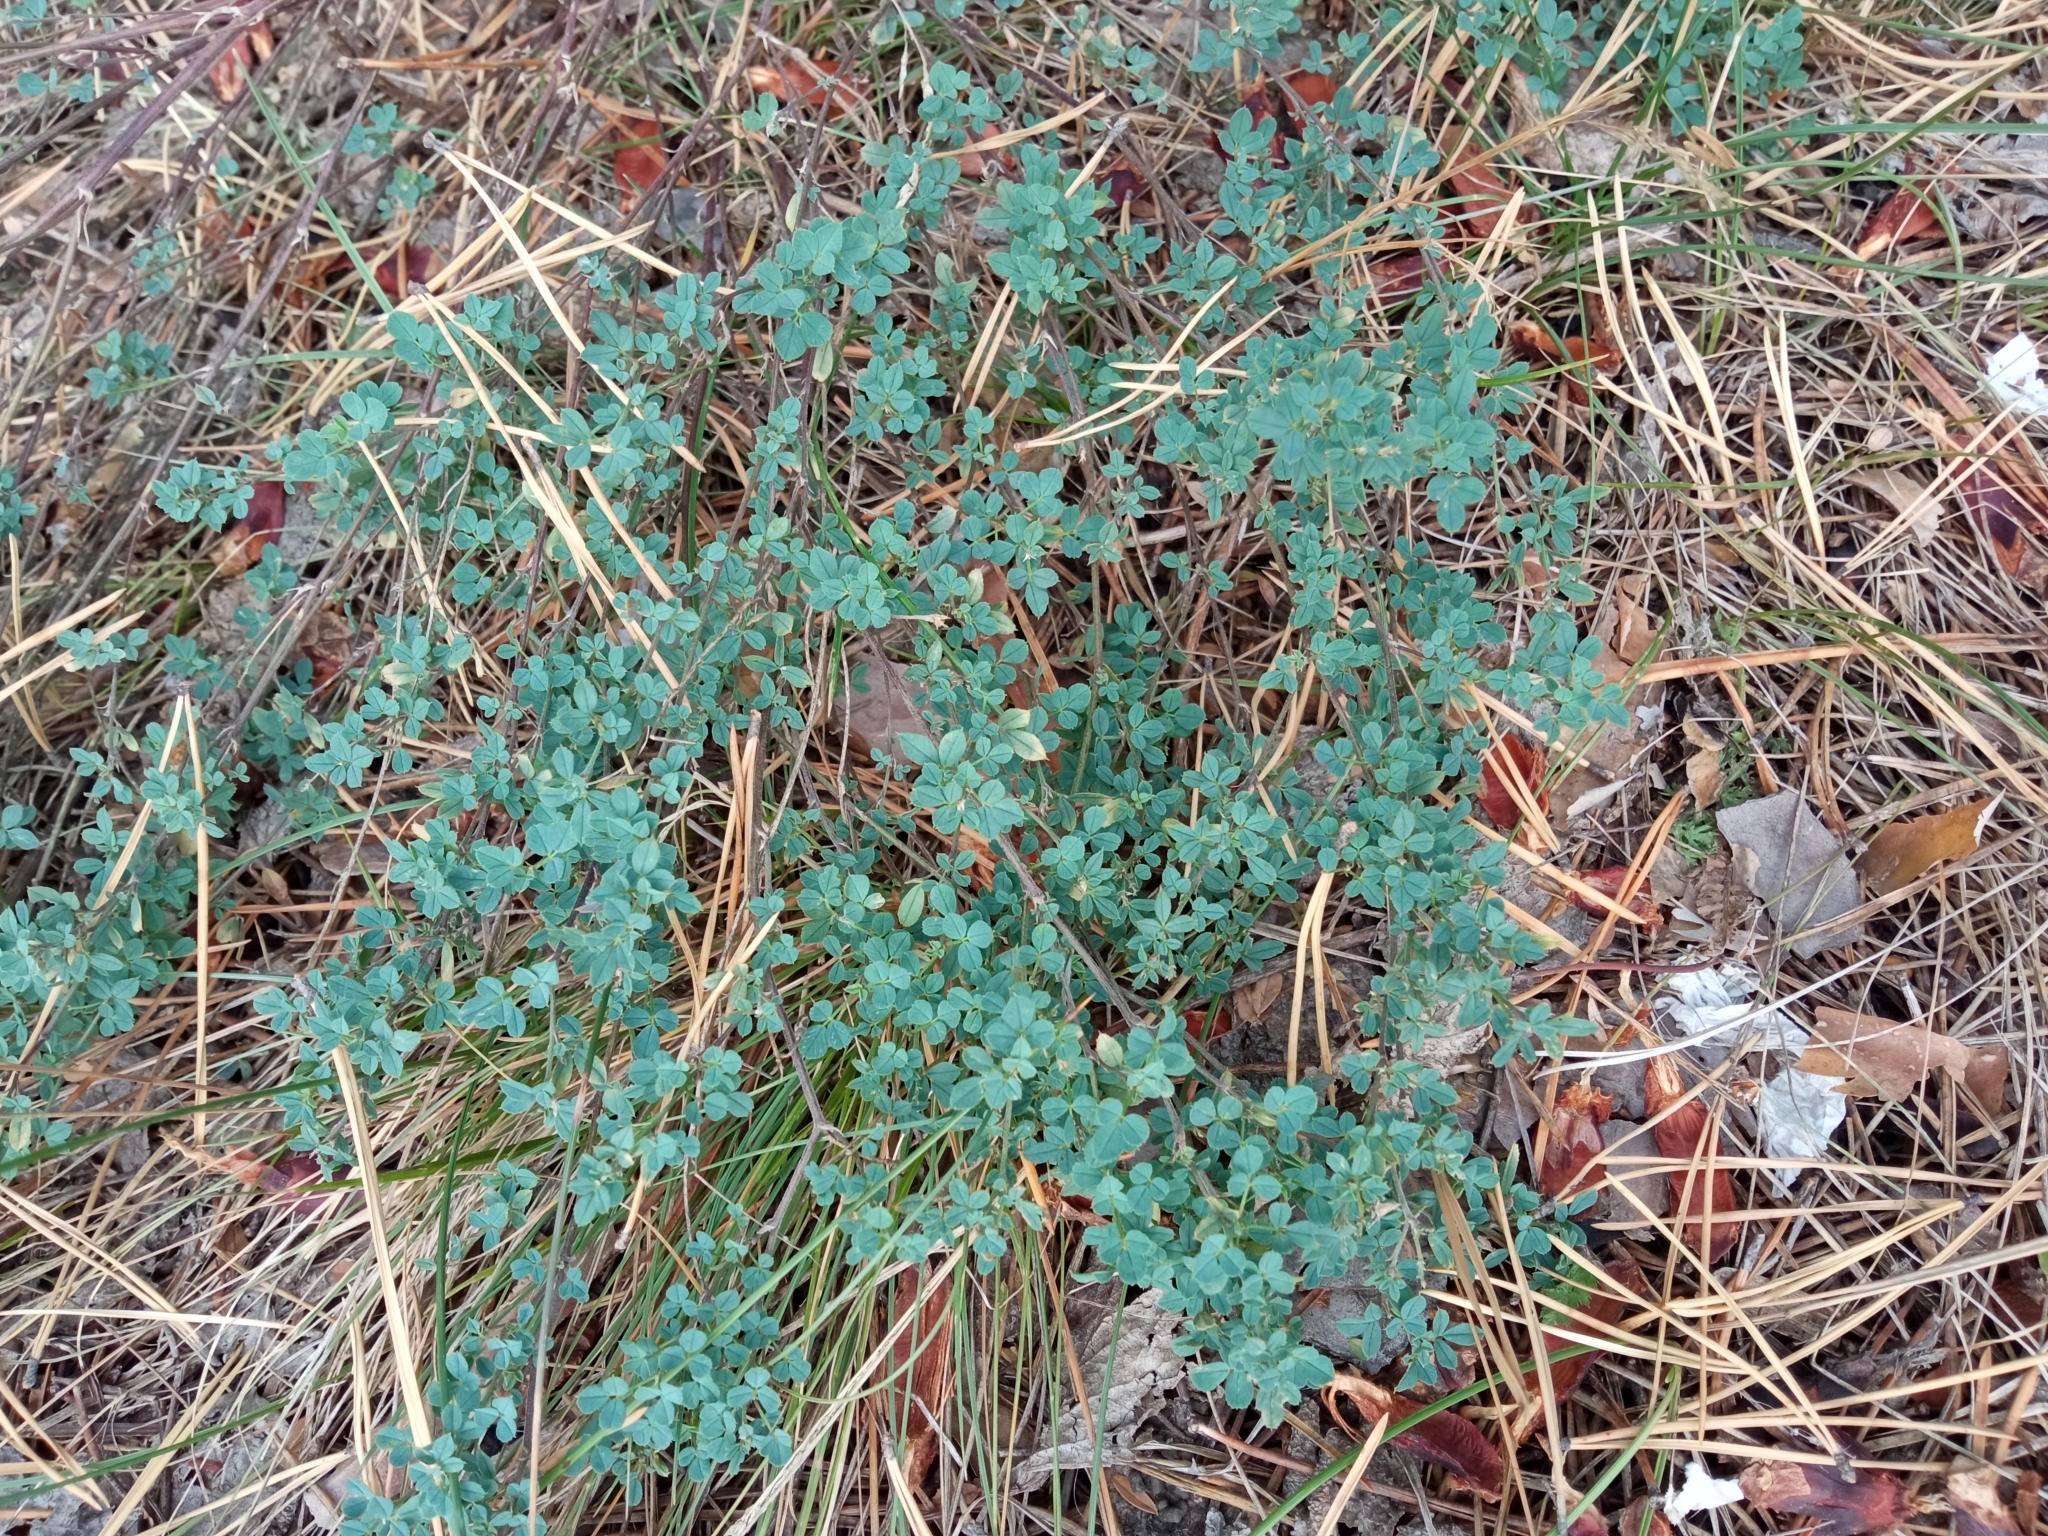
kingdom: Plantae
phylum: Tracheophyta
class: Magnoliopsida
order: Fabales
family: Fabaceae
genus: Lotus
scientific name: Lotus corniculatus
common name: Common bird's-foot-trefoil
